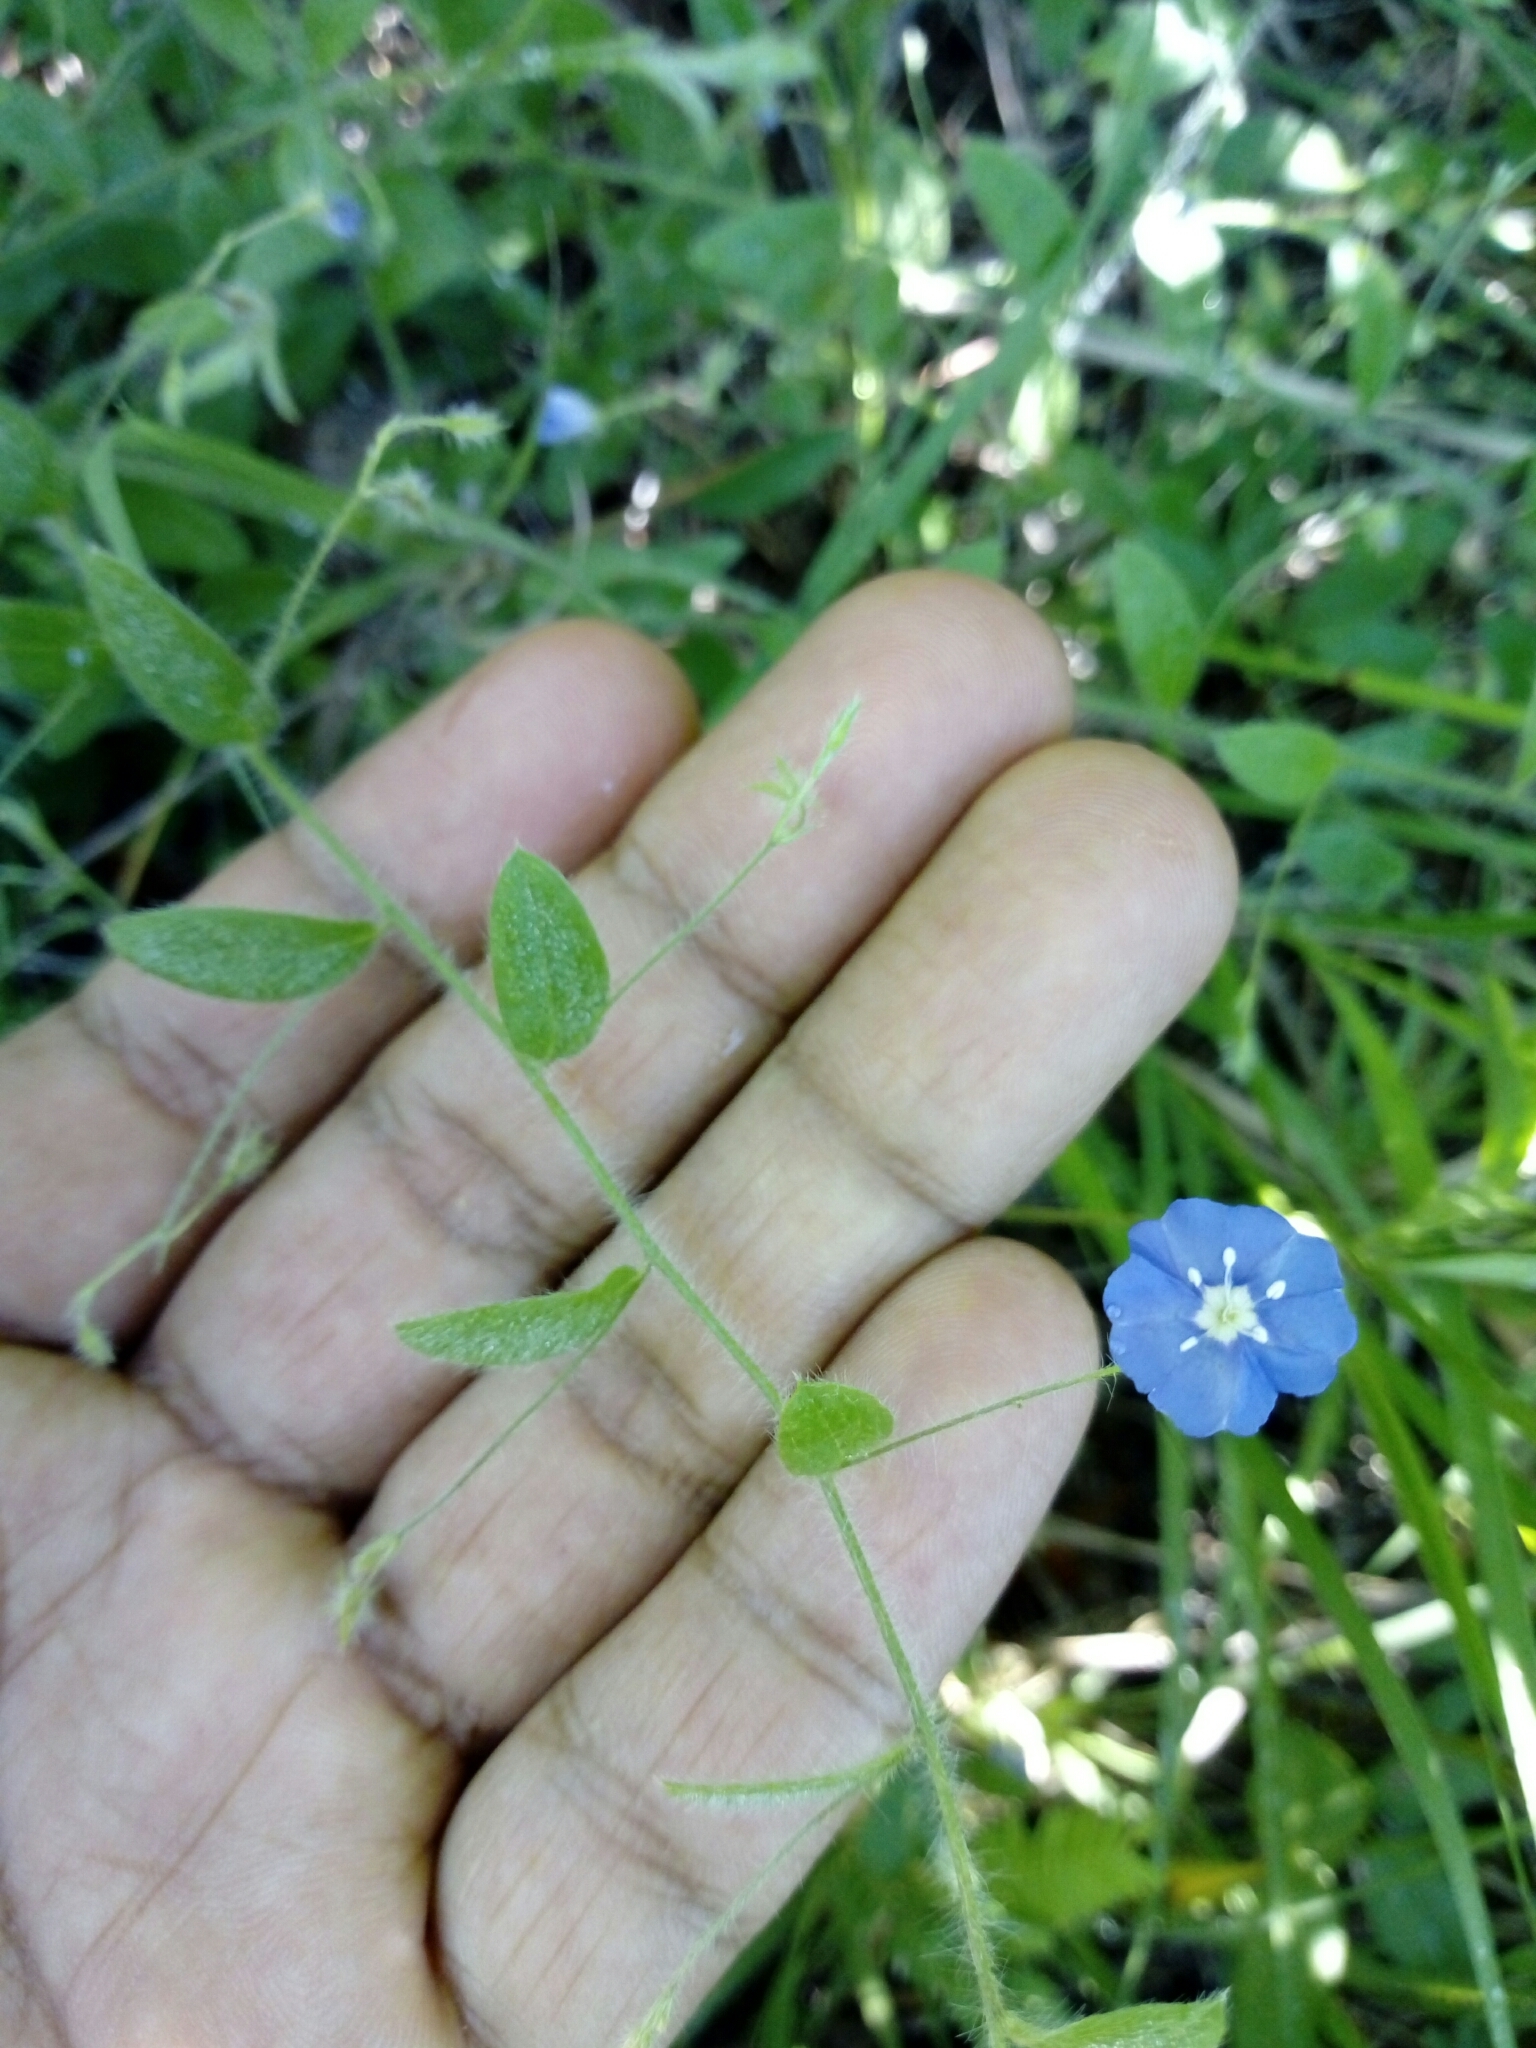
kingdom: Plantae
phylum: Tracheophyta
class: Magnoliopsida
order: Solanales
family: Convolvulaceae
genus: Evolvulus
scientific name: Evolvulus alsinoides
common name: Slender dwarf morning-glory
